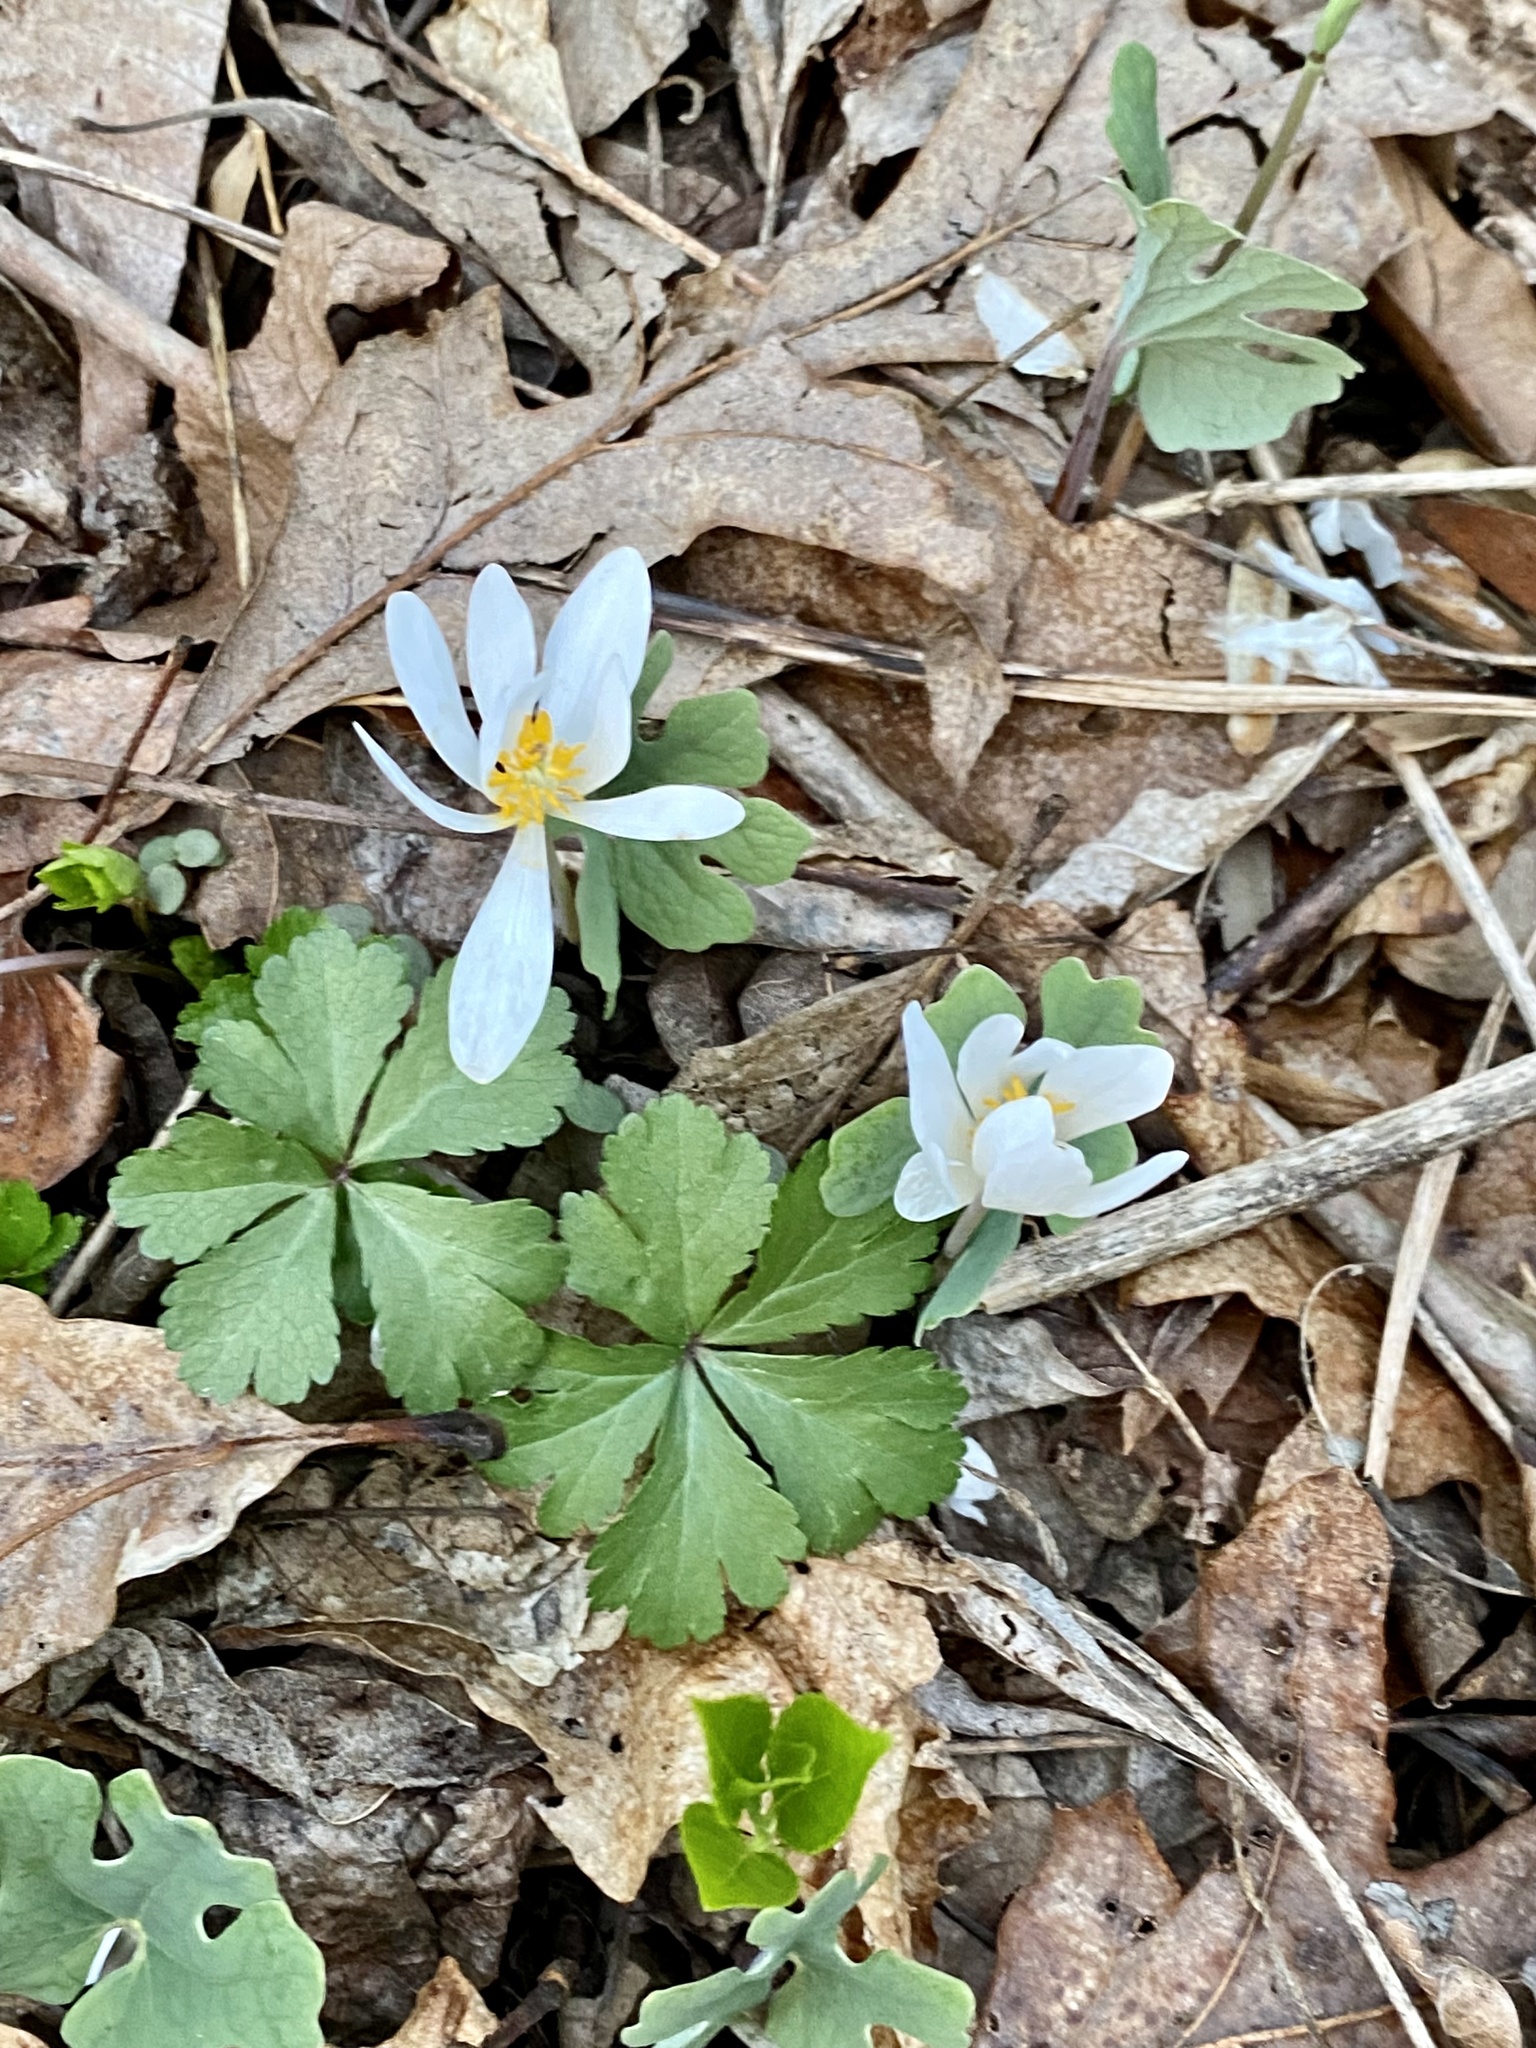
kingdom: Plantae
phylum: Tracheophyta
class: Magnoliopsida
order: Ranunculales
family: Papaveraceae
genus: Sanguinaria
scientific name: Sanguinaria canadensis
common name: Bloodroot
